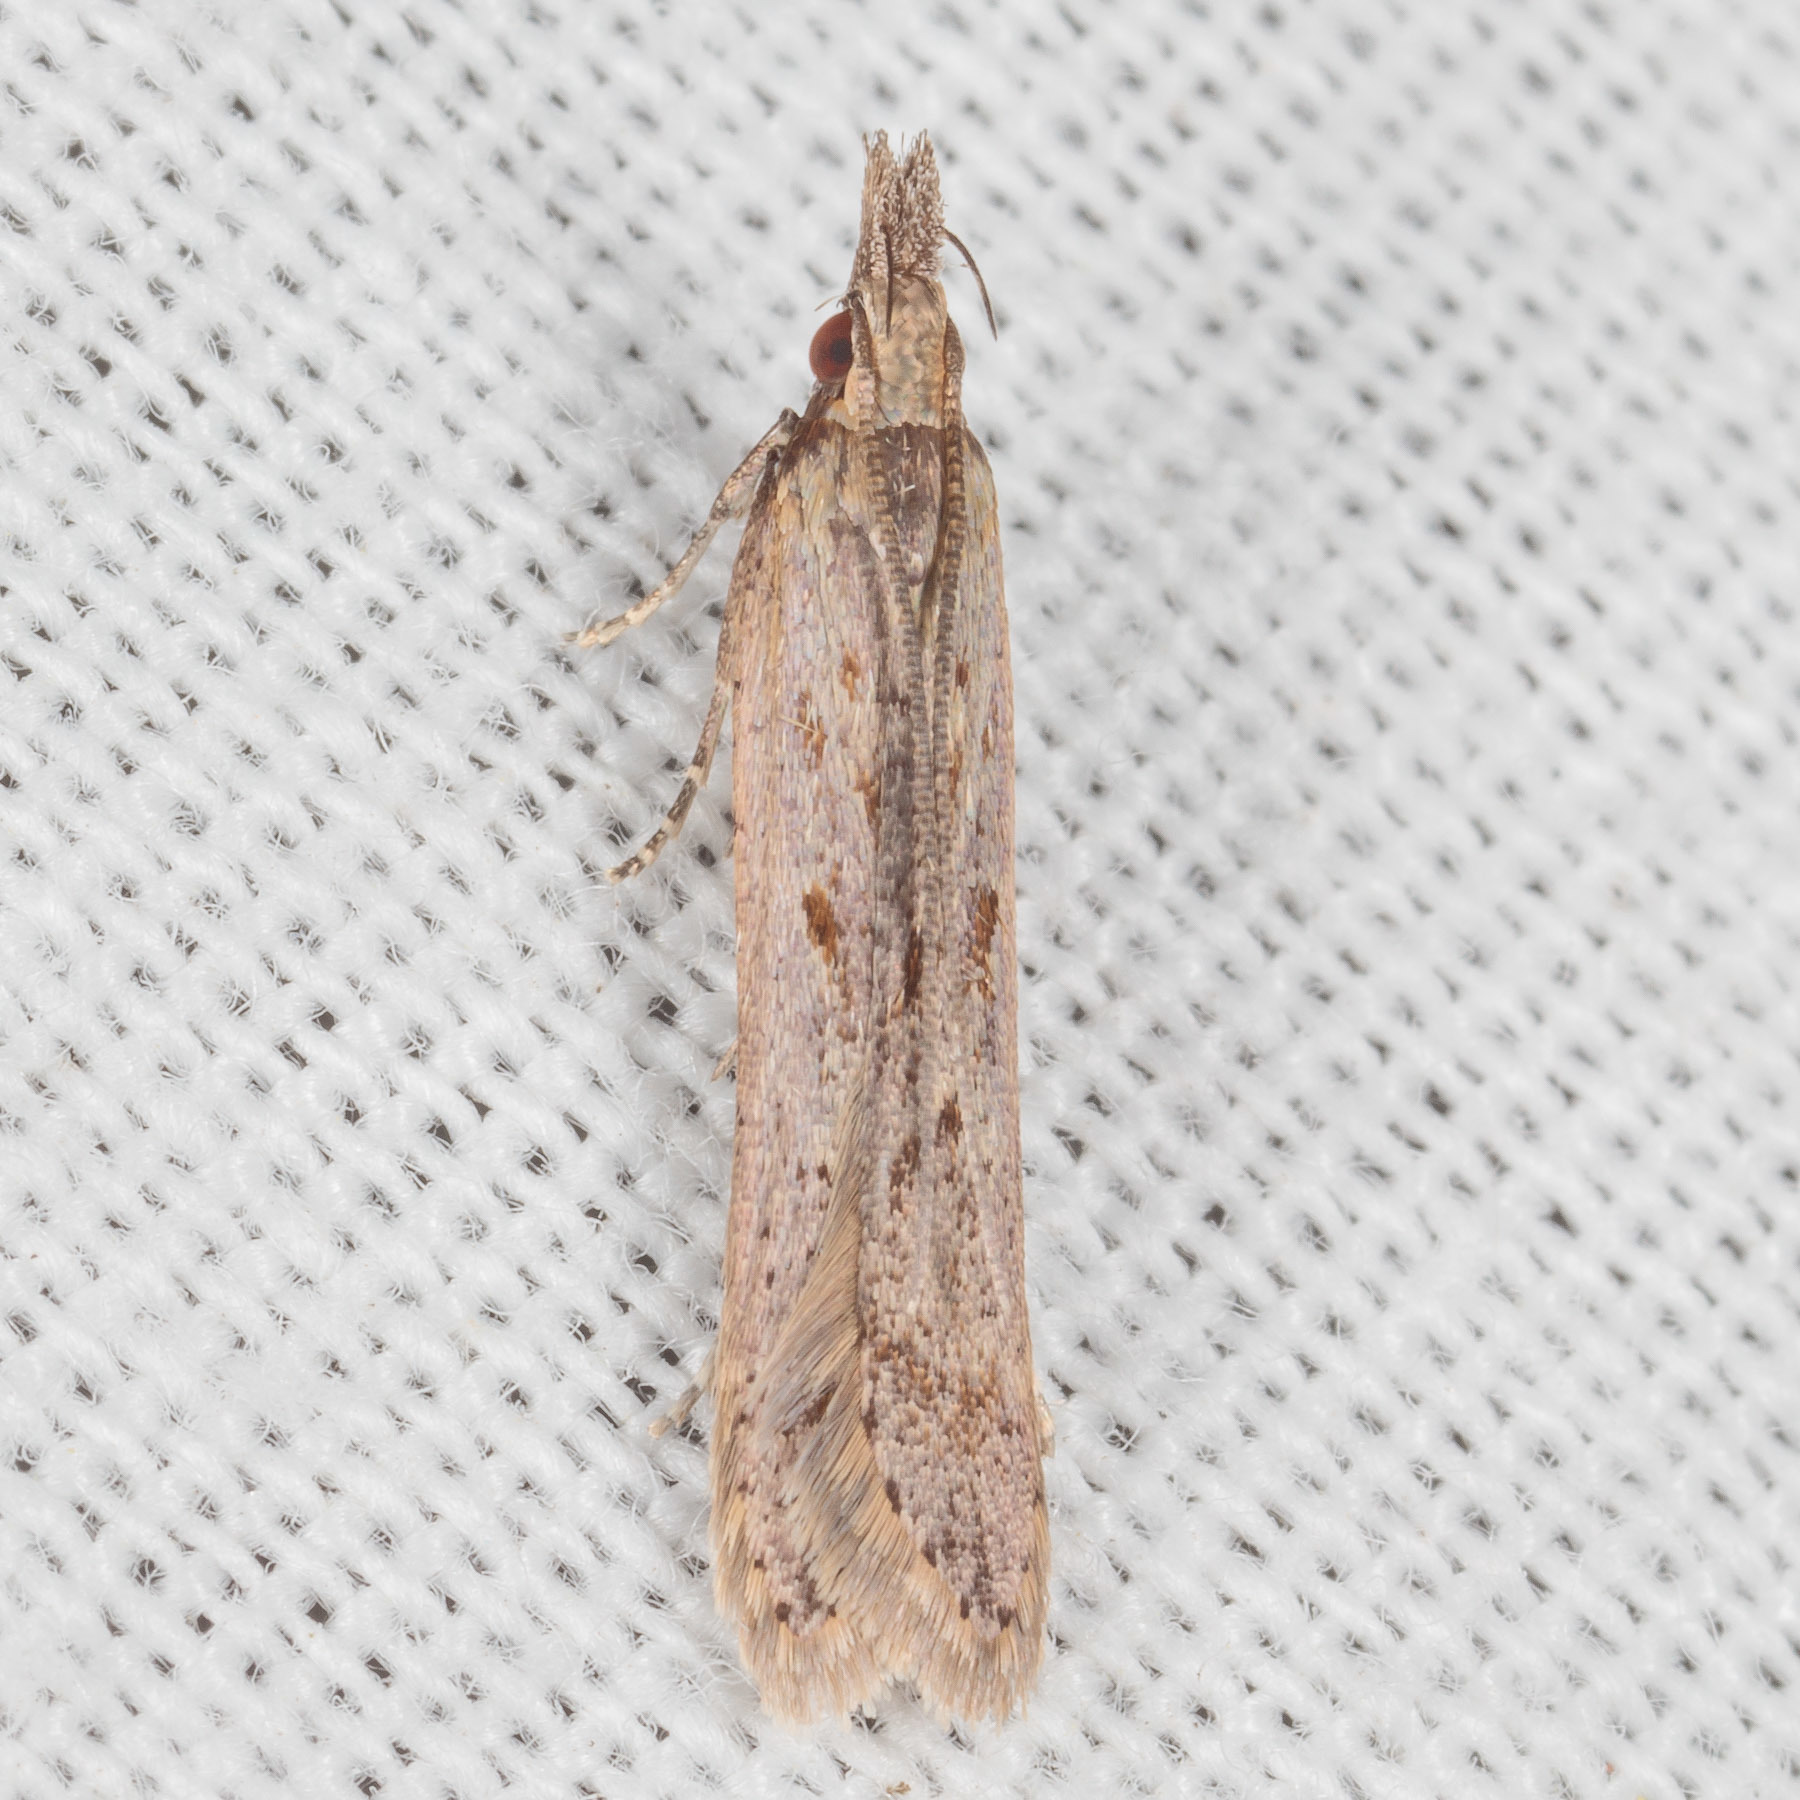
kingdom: Animalia
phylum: Arthropoda
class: Insecta
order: Lepidoptera
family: Gelechiidae
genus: Dichomeris
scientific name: Dichomeris ligulella
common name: Moth
